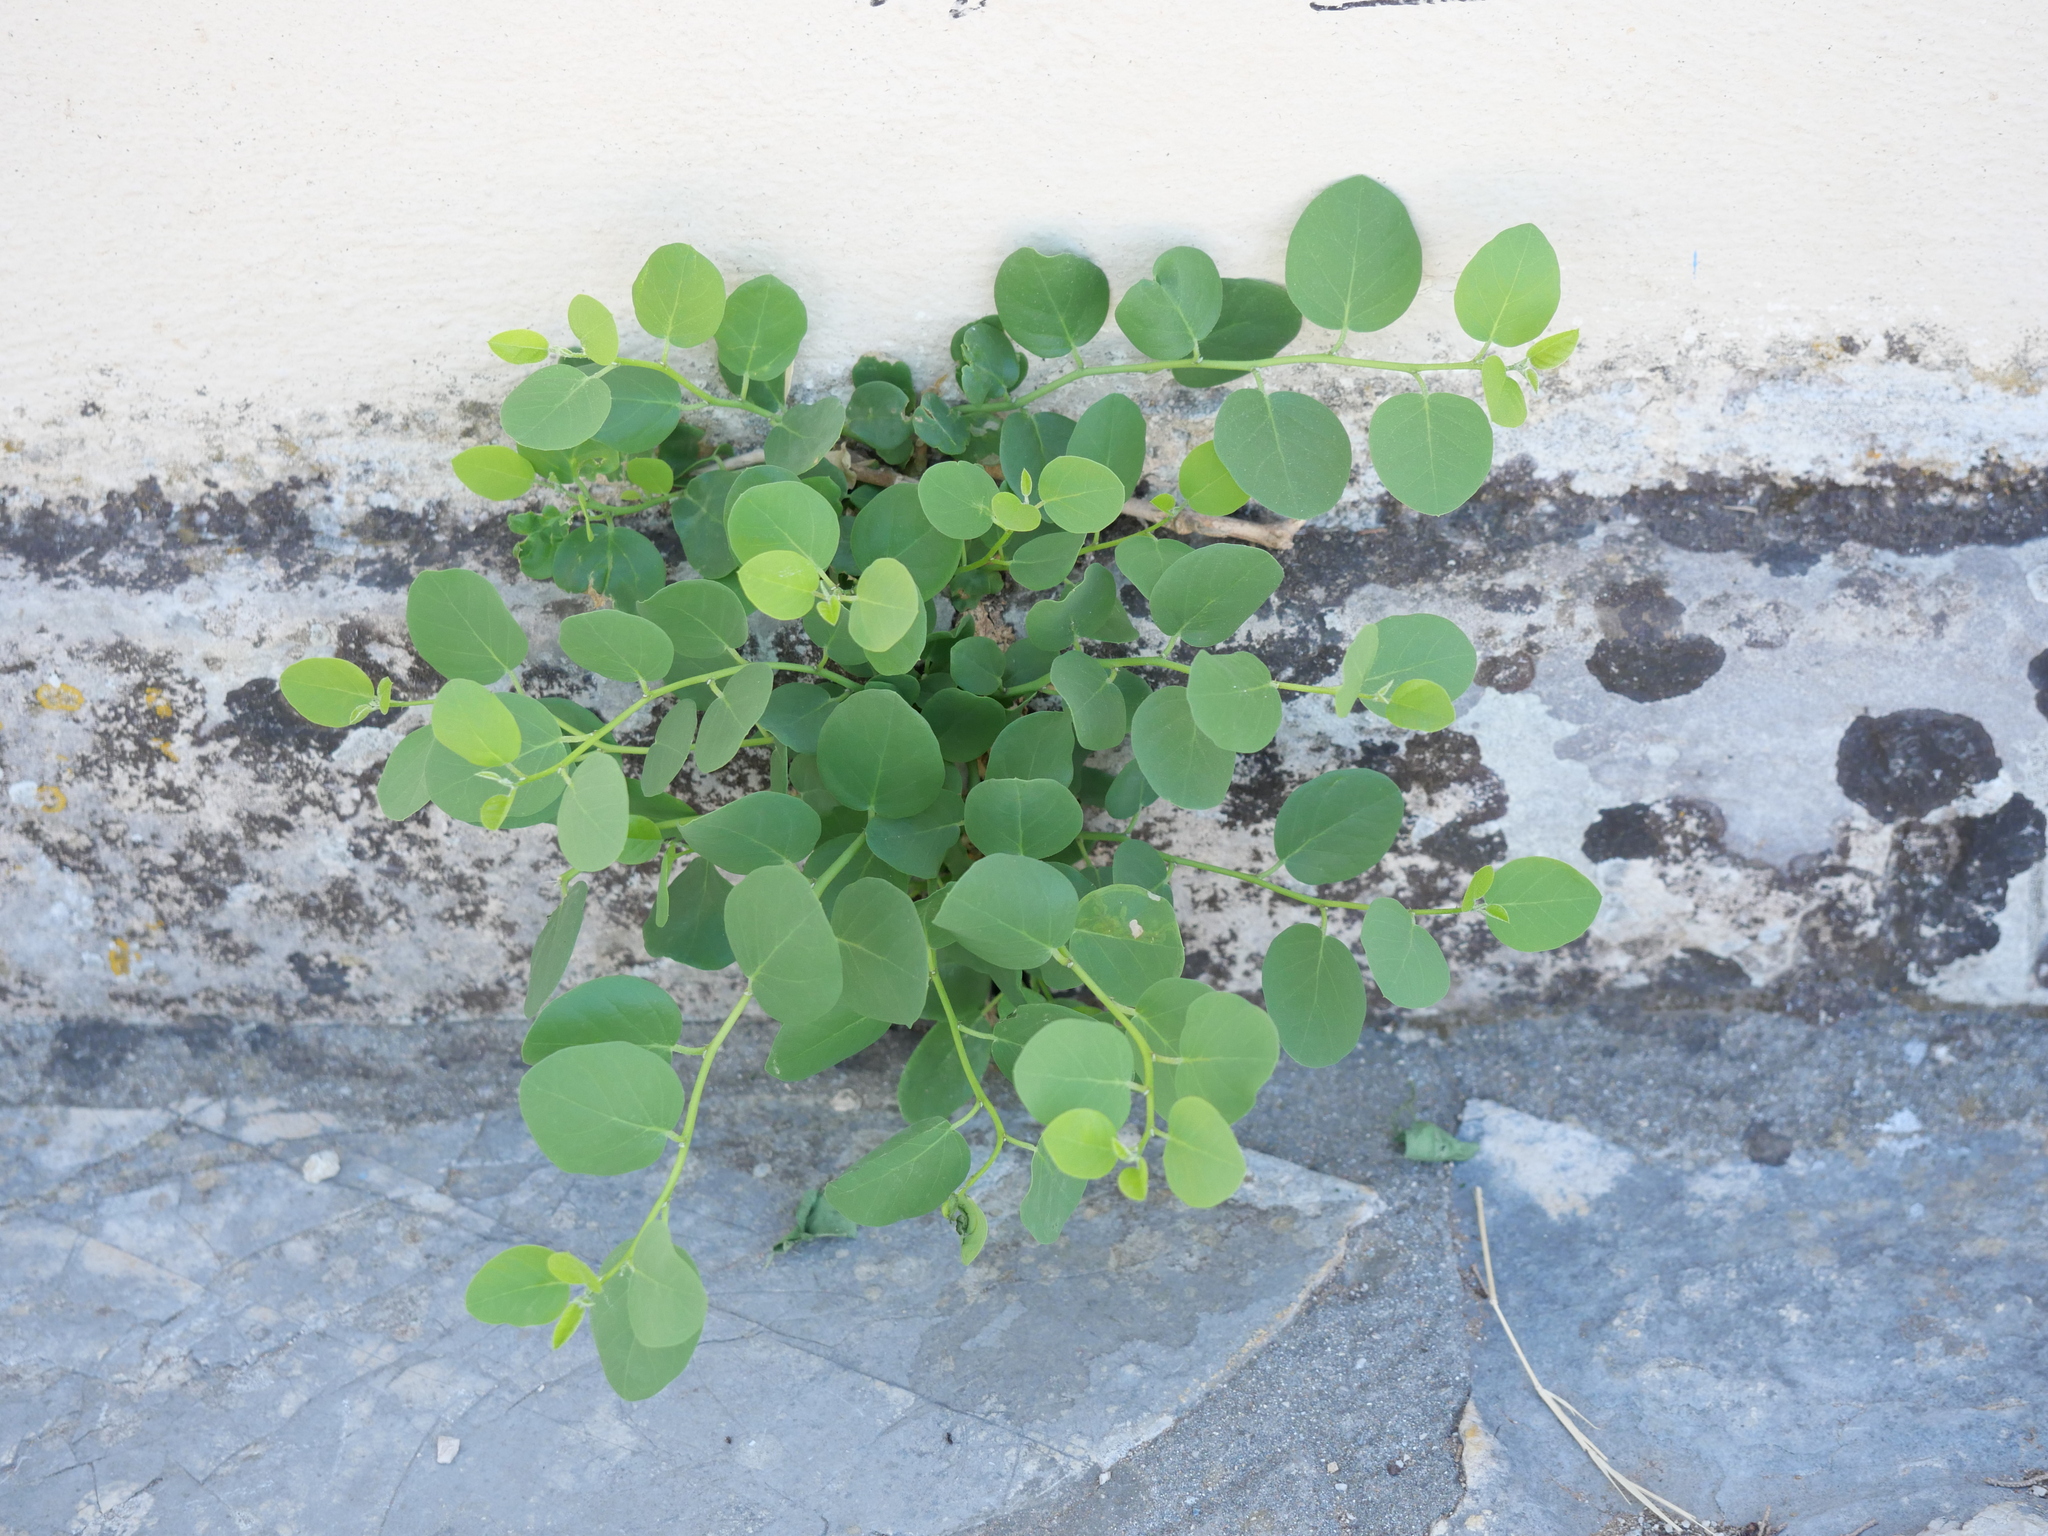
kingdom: Plantae
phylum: Tracheophyta
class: Magnoliopsida
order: Brassicales
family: Capparaceae
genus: Capparis
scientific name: Capparis orientalis
